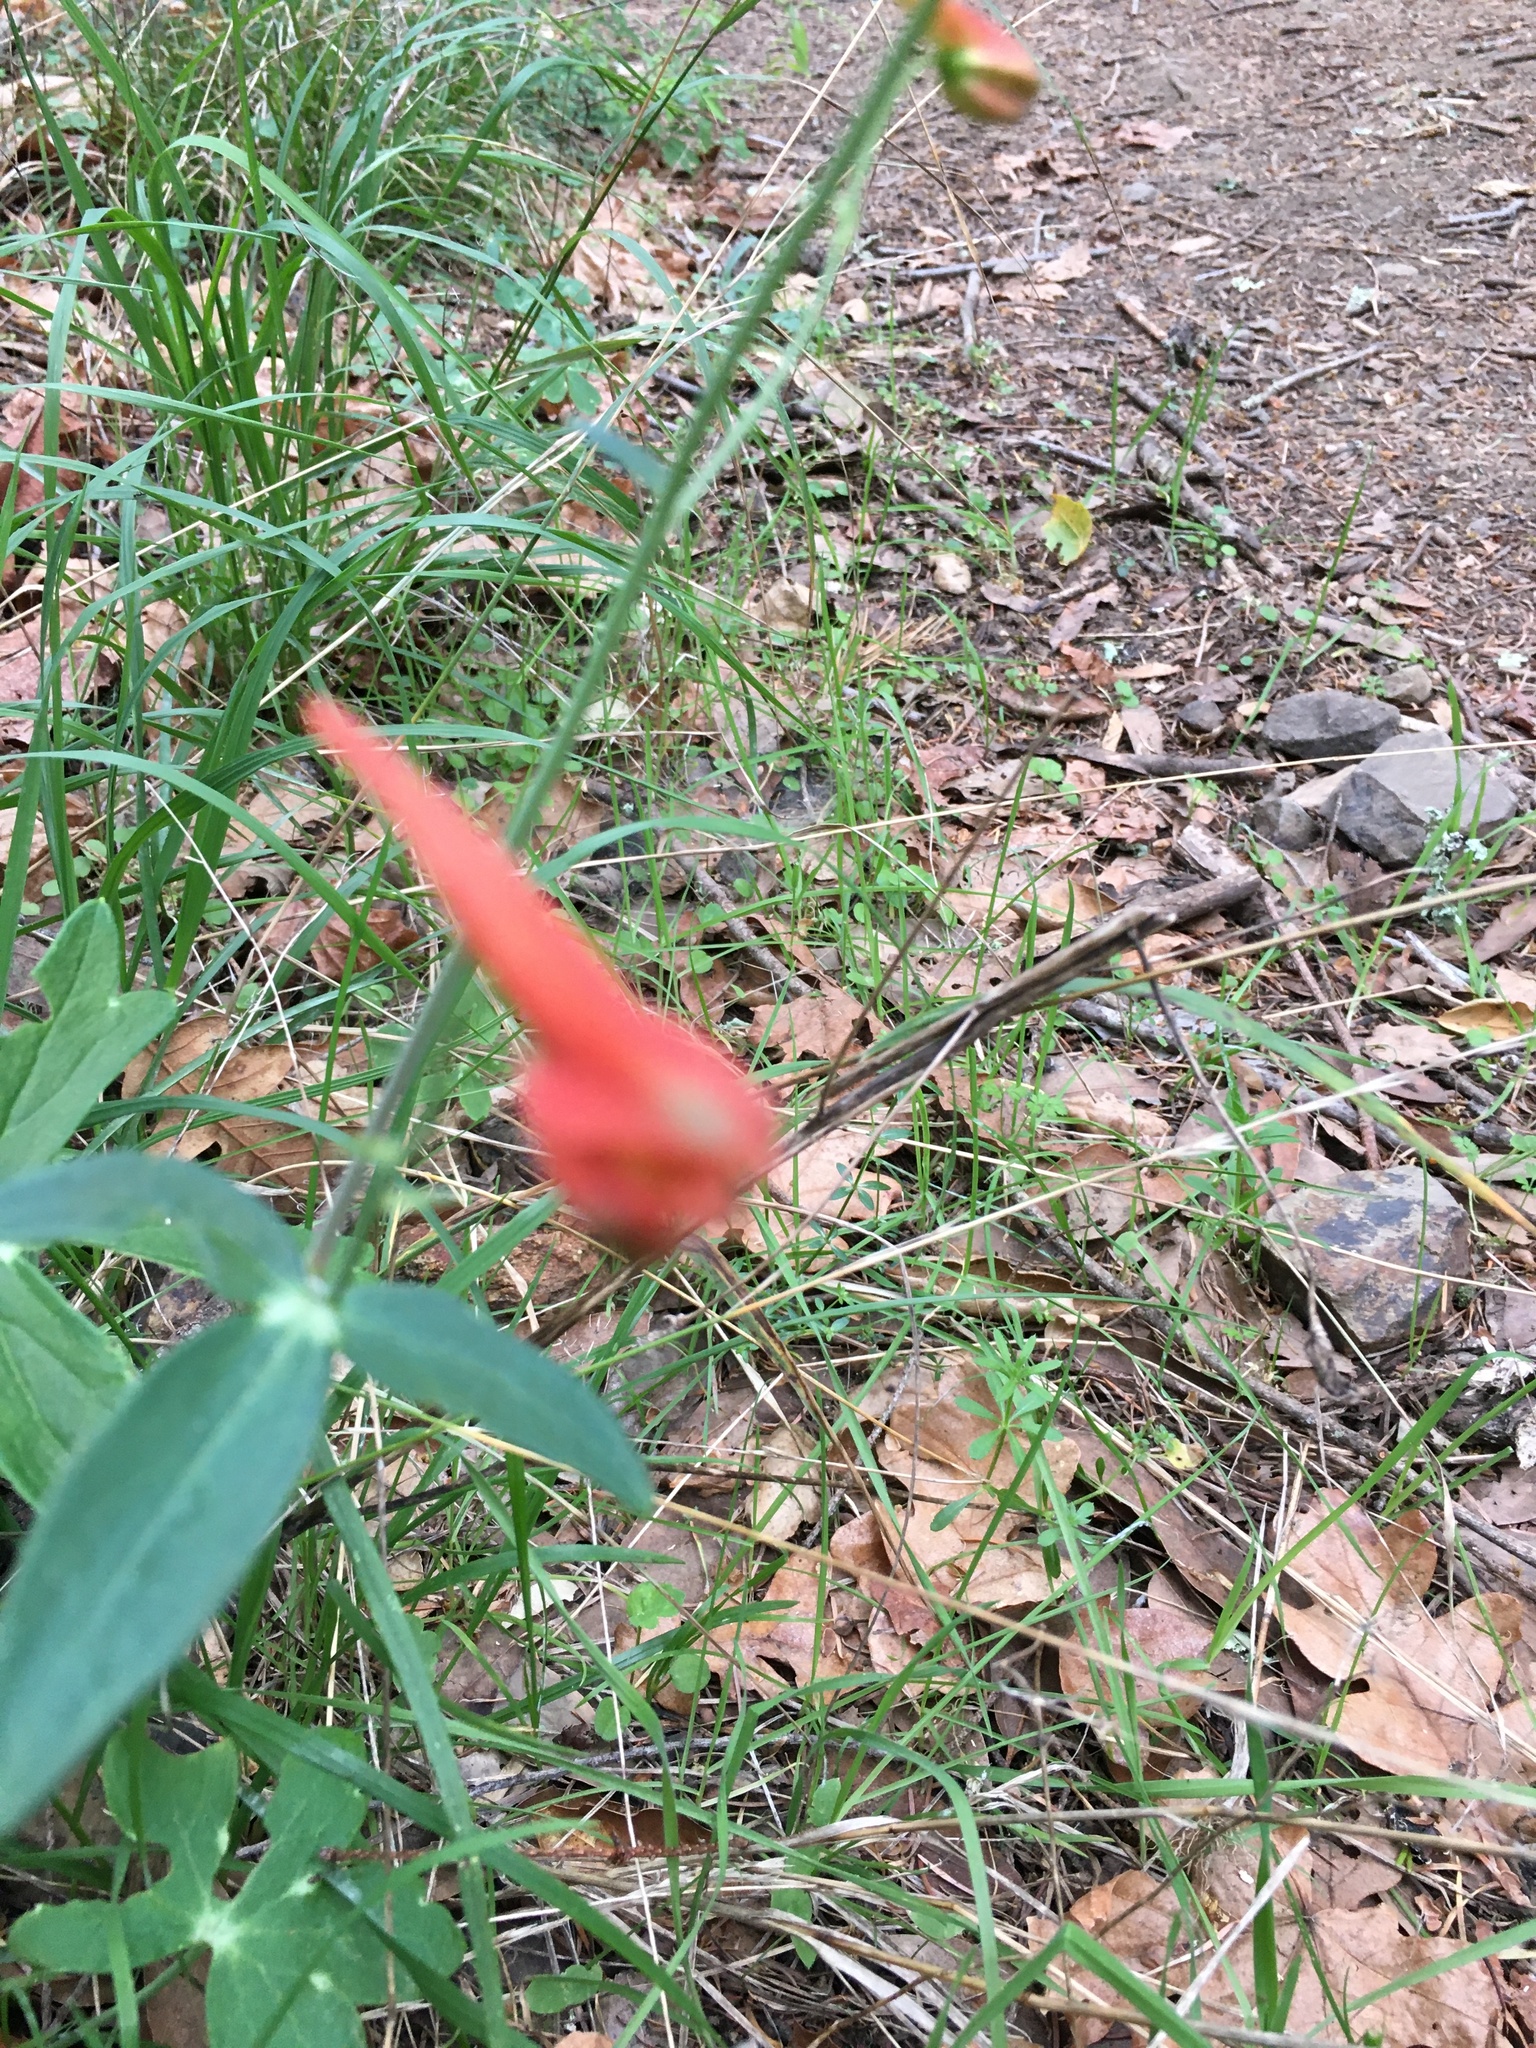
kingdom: Plantae
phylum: Tracheophyta
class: Magnoliopsida
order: Ranunculales
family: Ranunculaceae
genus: Delphinium
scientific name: Delphinium nudicaule
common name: Red larkspur
